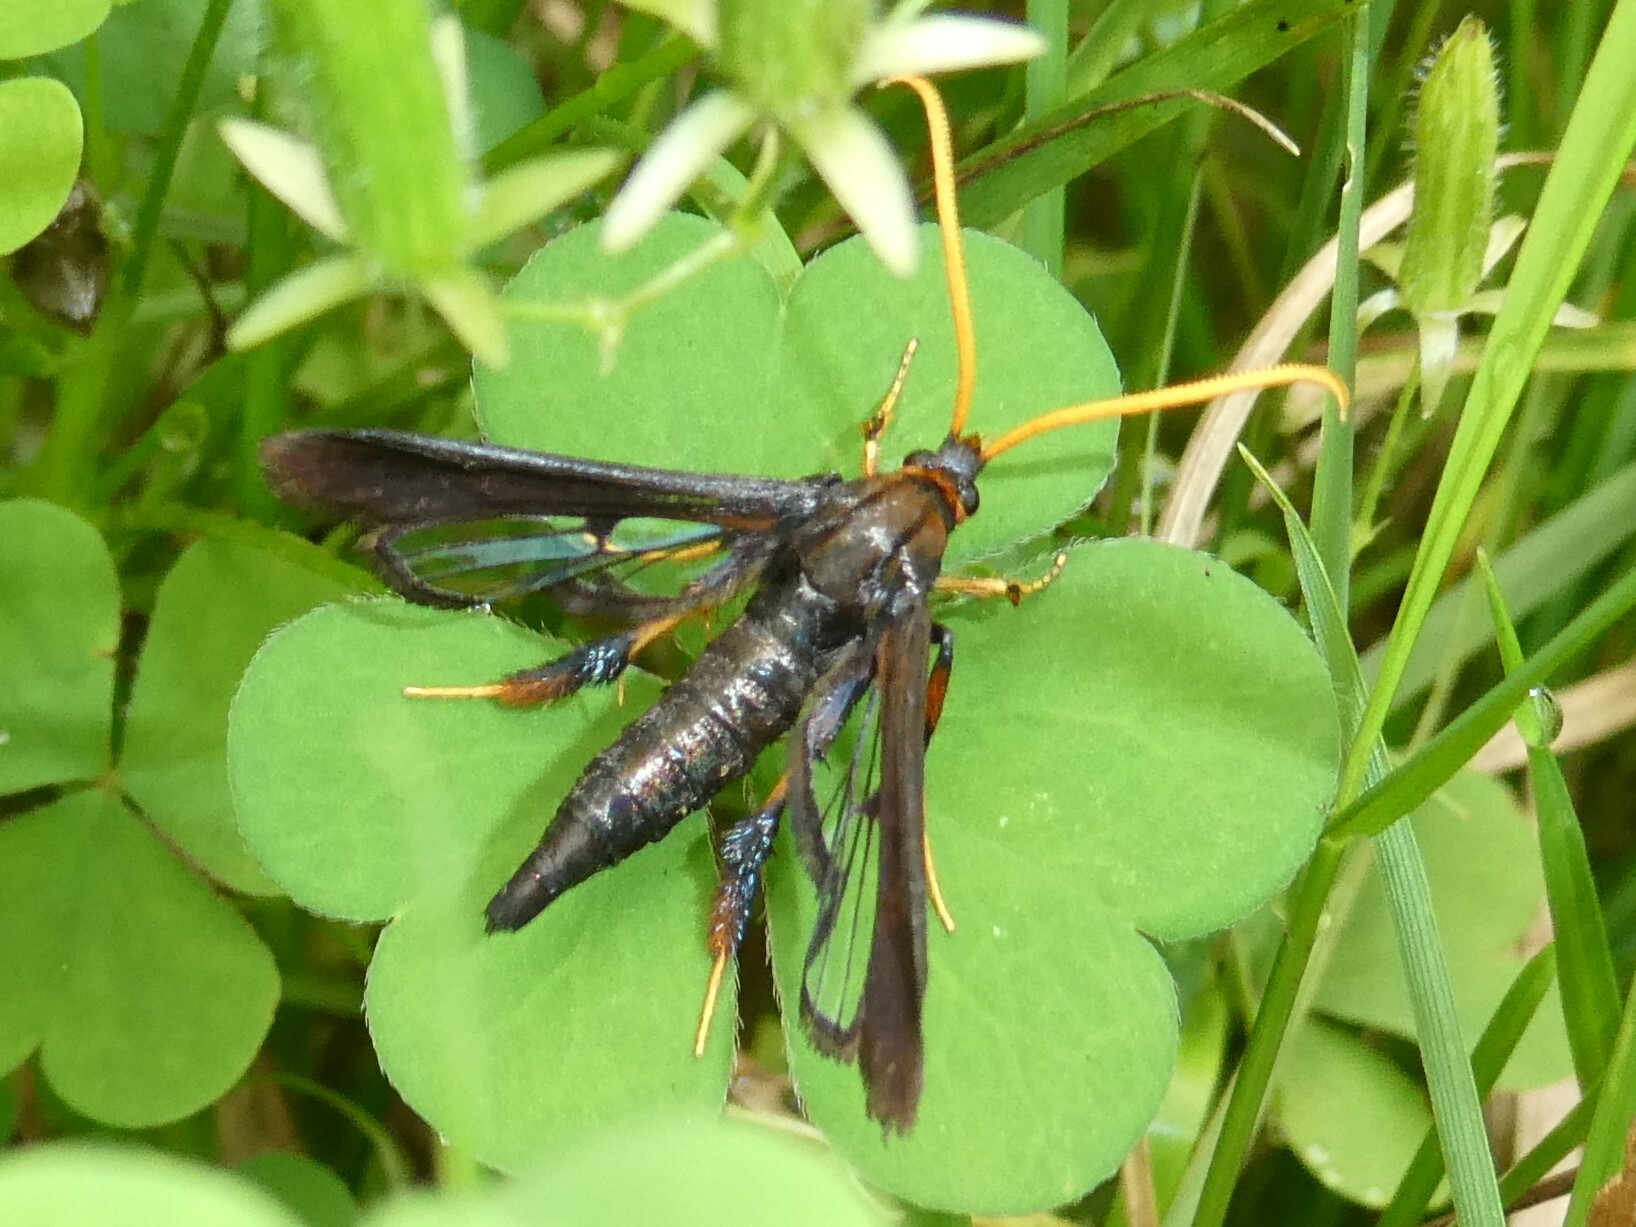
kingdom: Animalia
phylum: Arthropoda
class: Insecta
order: Lepidoptera
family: Sesiidae
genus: Alcathoe
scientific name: Alcathoe caudata
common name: Clematis clearwing moth
